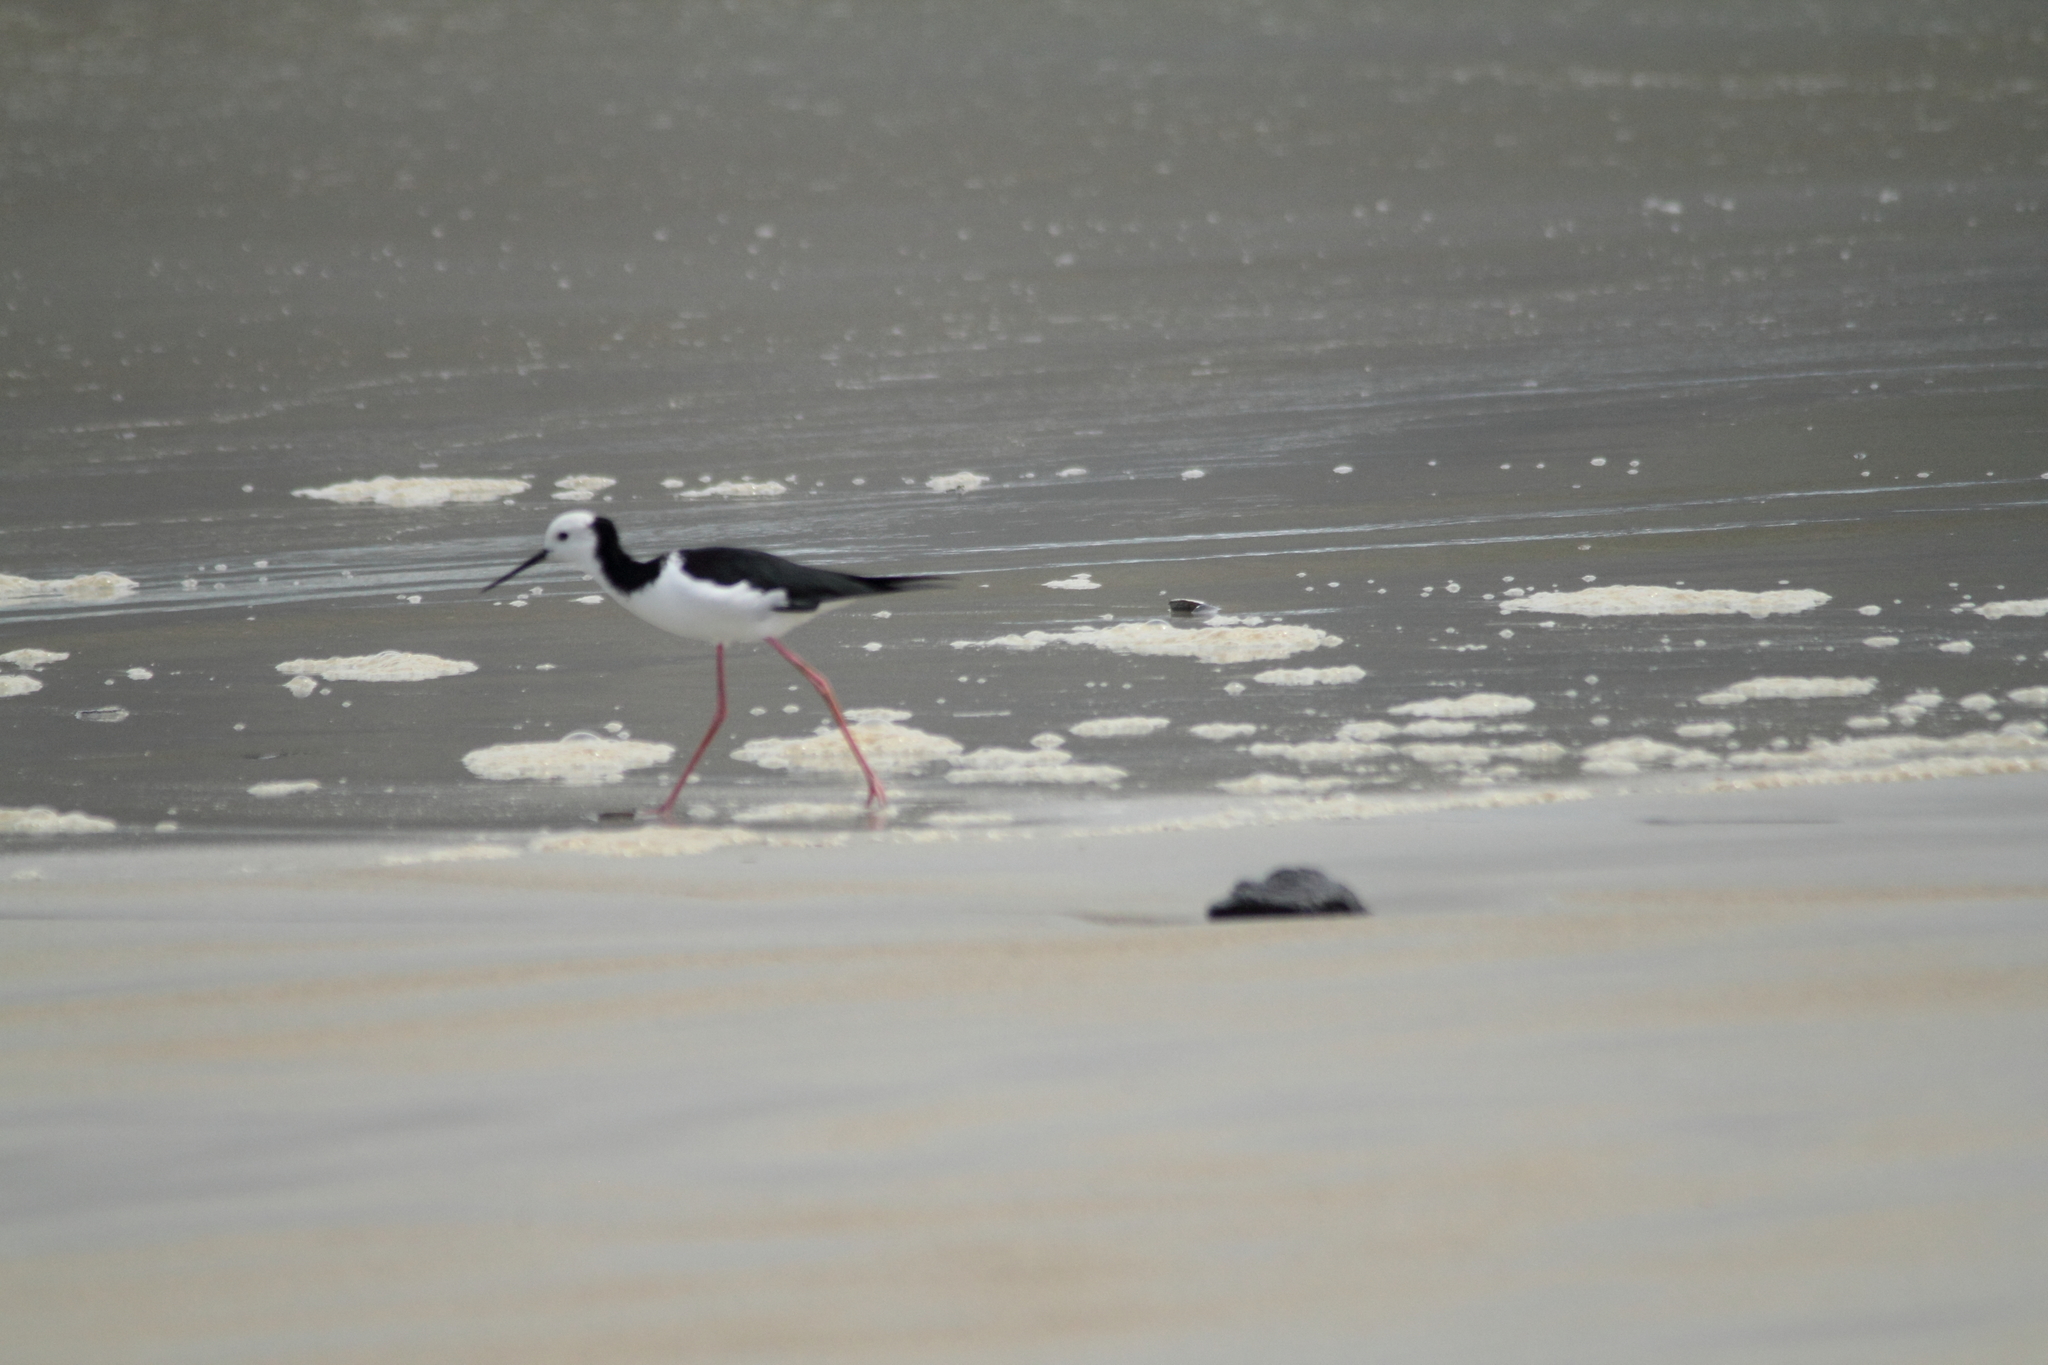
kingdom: Animalia
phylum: Chordata
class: Aves
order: Charadriiformes
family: Recurvirostridae
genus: Himantopus
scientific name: Himantopus leucocephalus
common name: White-headed stilt
